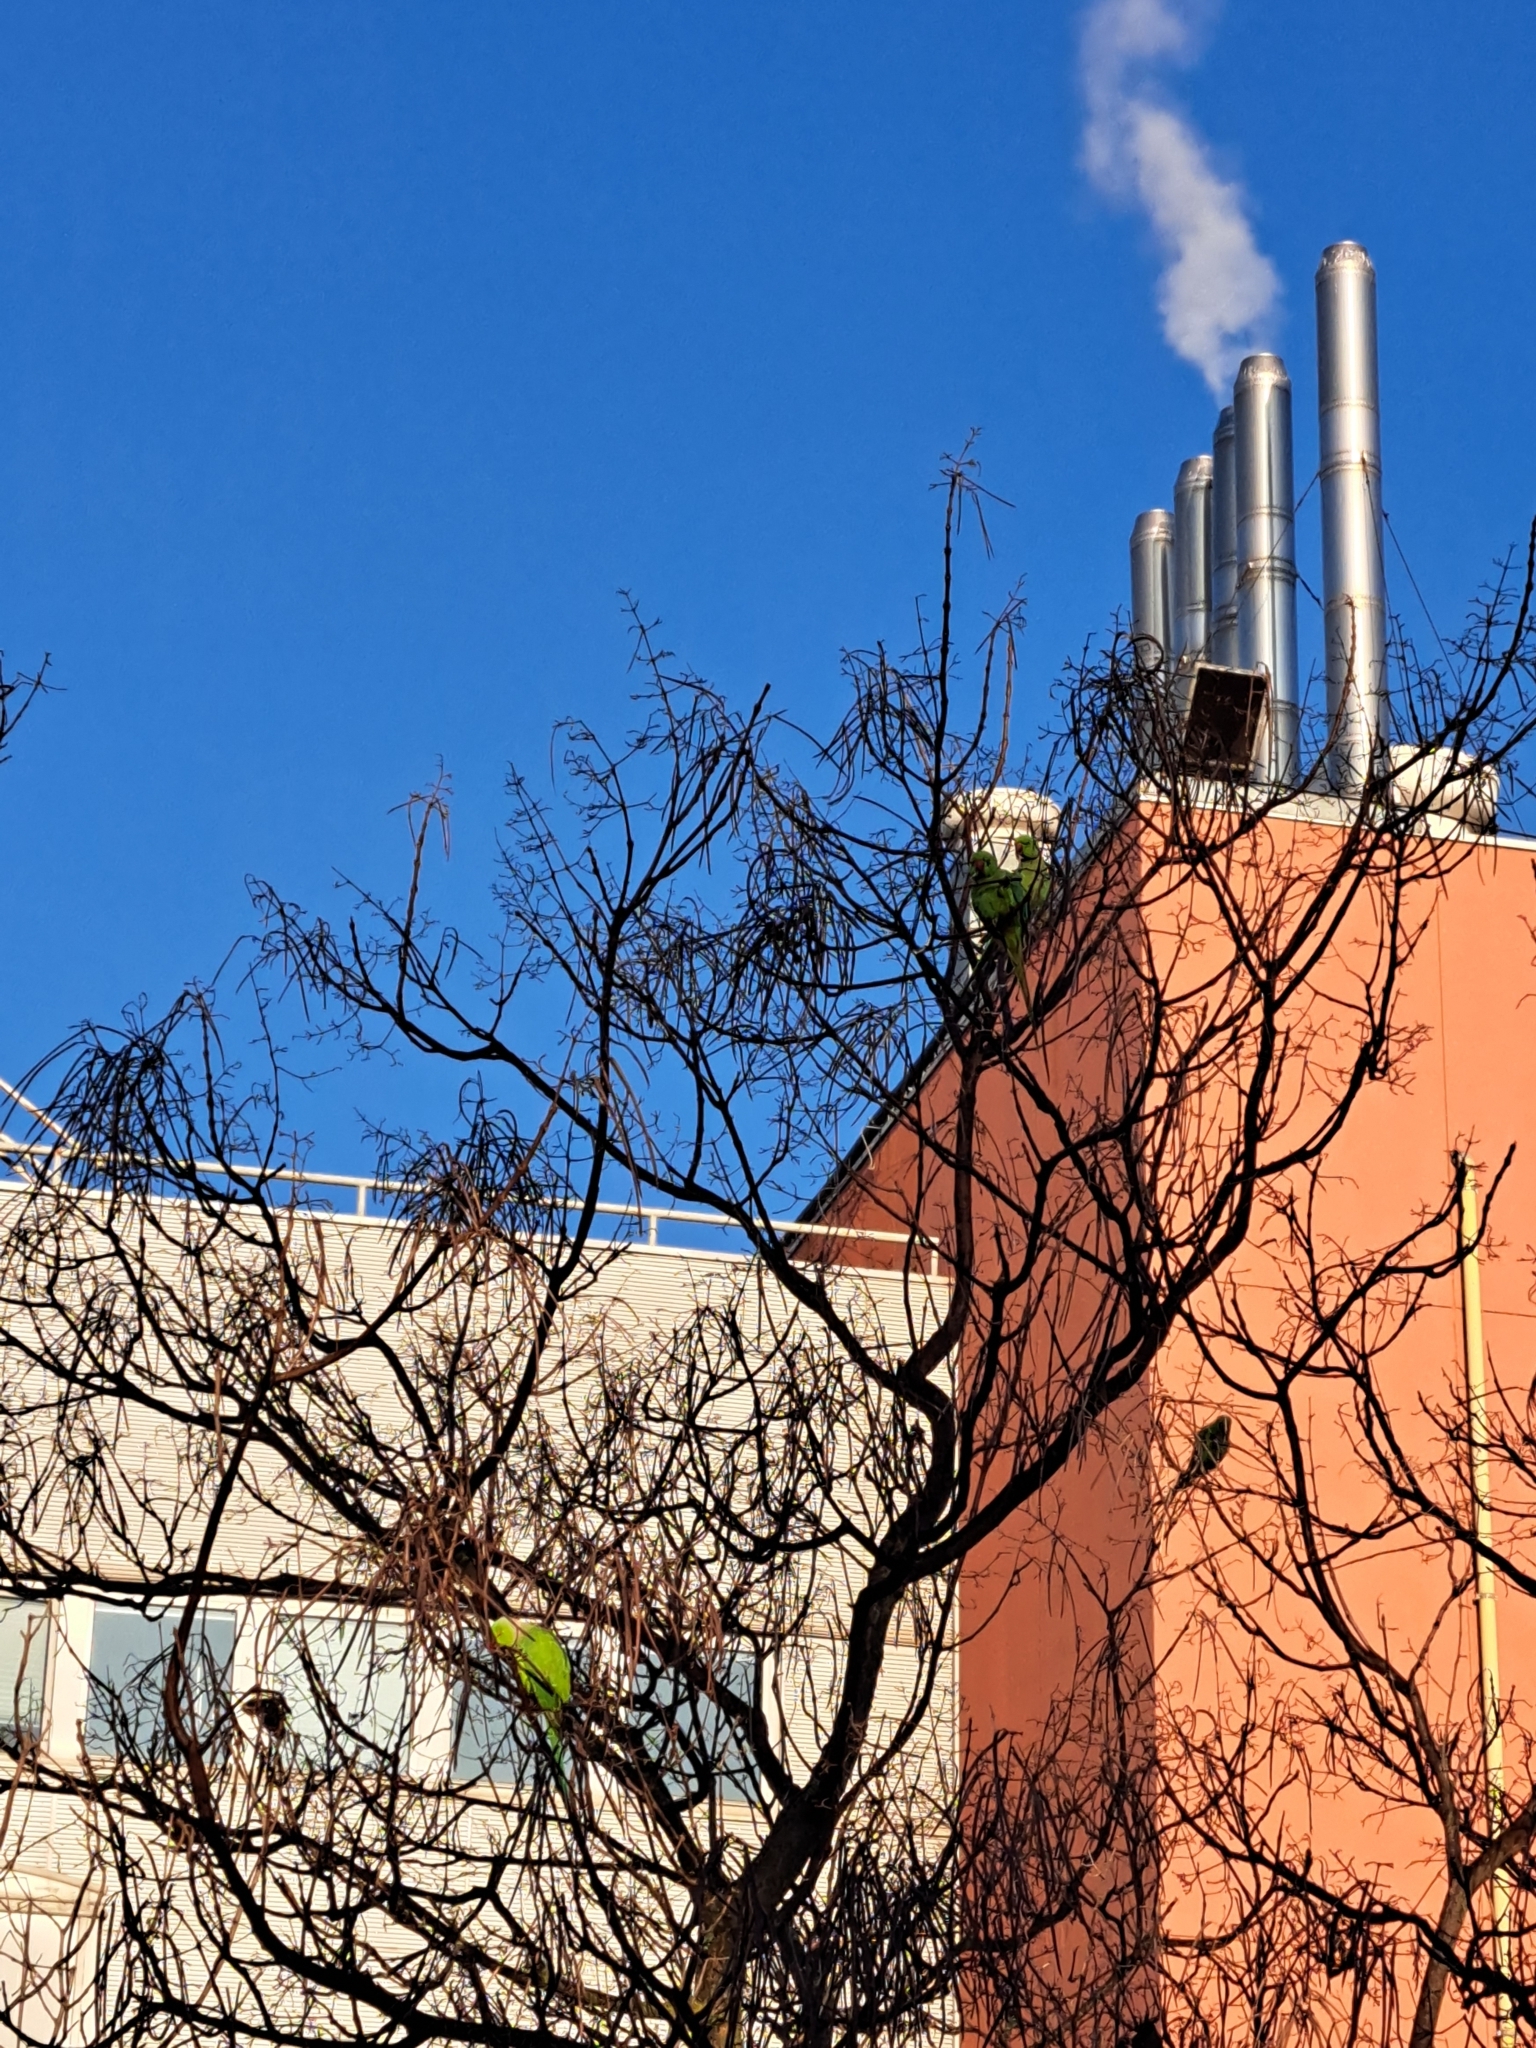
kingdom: Animalia
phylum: Chordata
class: Aves
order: Psittaciformes
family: Psittacidae
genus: Psittacula
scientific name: Psittacula krameri
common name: Rose-ringed parakeet
